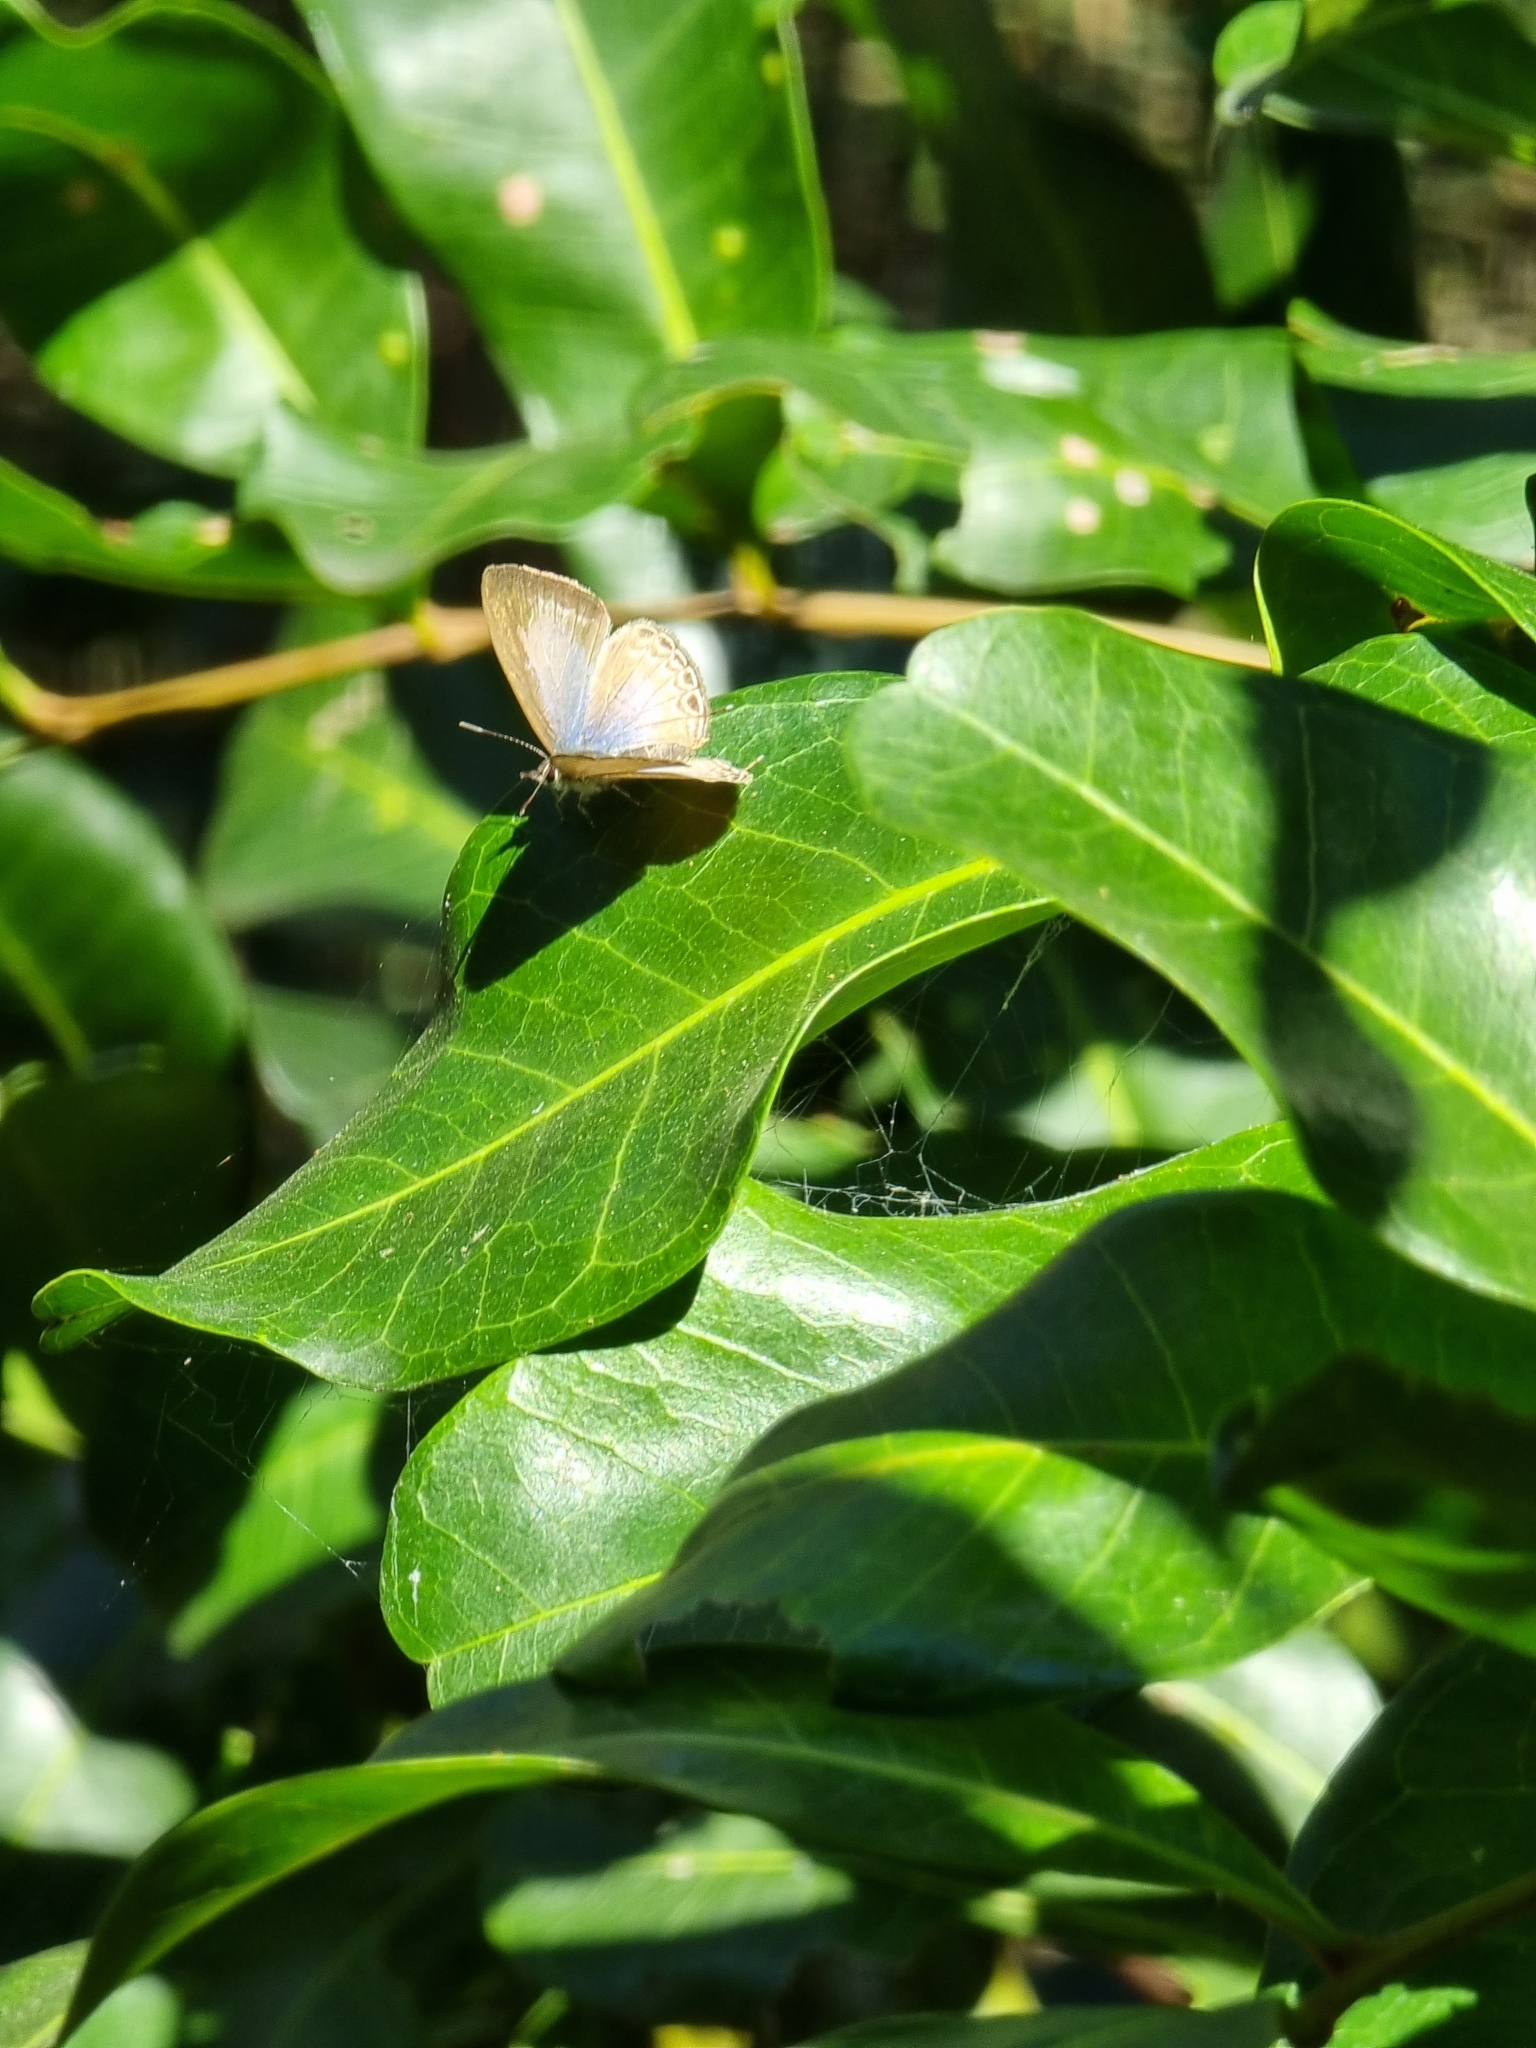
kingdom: Animalia
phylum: Arthropoda
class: Insecta
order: Lepidoptera
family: Lycaenidae
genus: Nacaduba
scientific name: Nacaduba berenice
